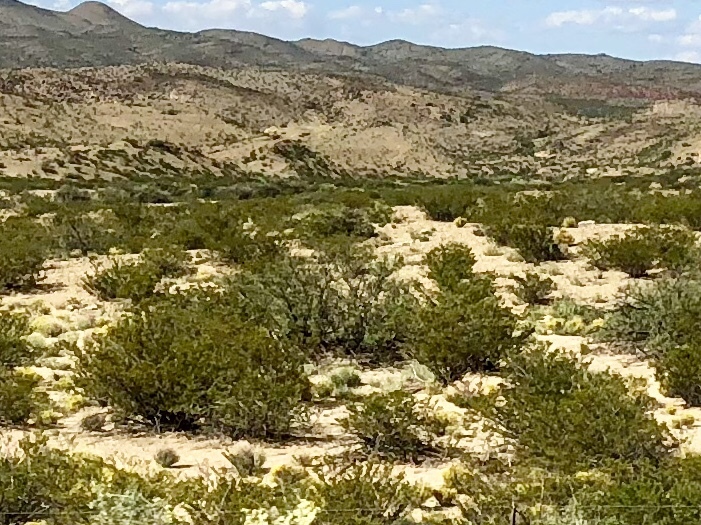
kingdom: Plantae
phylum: Tracheophyta
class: Magnoliopsida
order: Zygophyllales
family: Zygophyllaceae
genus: Larrea
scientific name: Larrea tridentata
